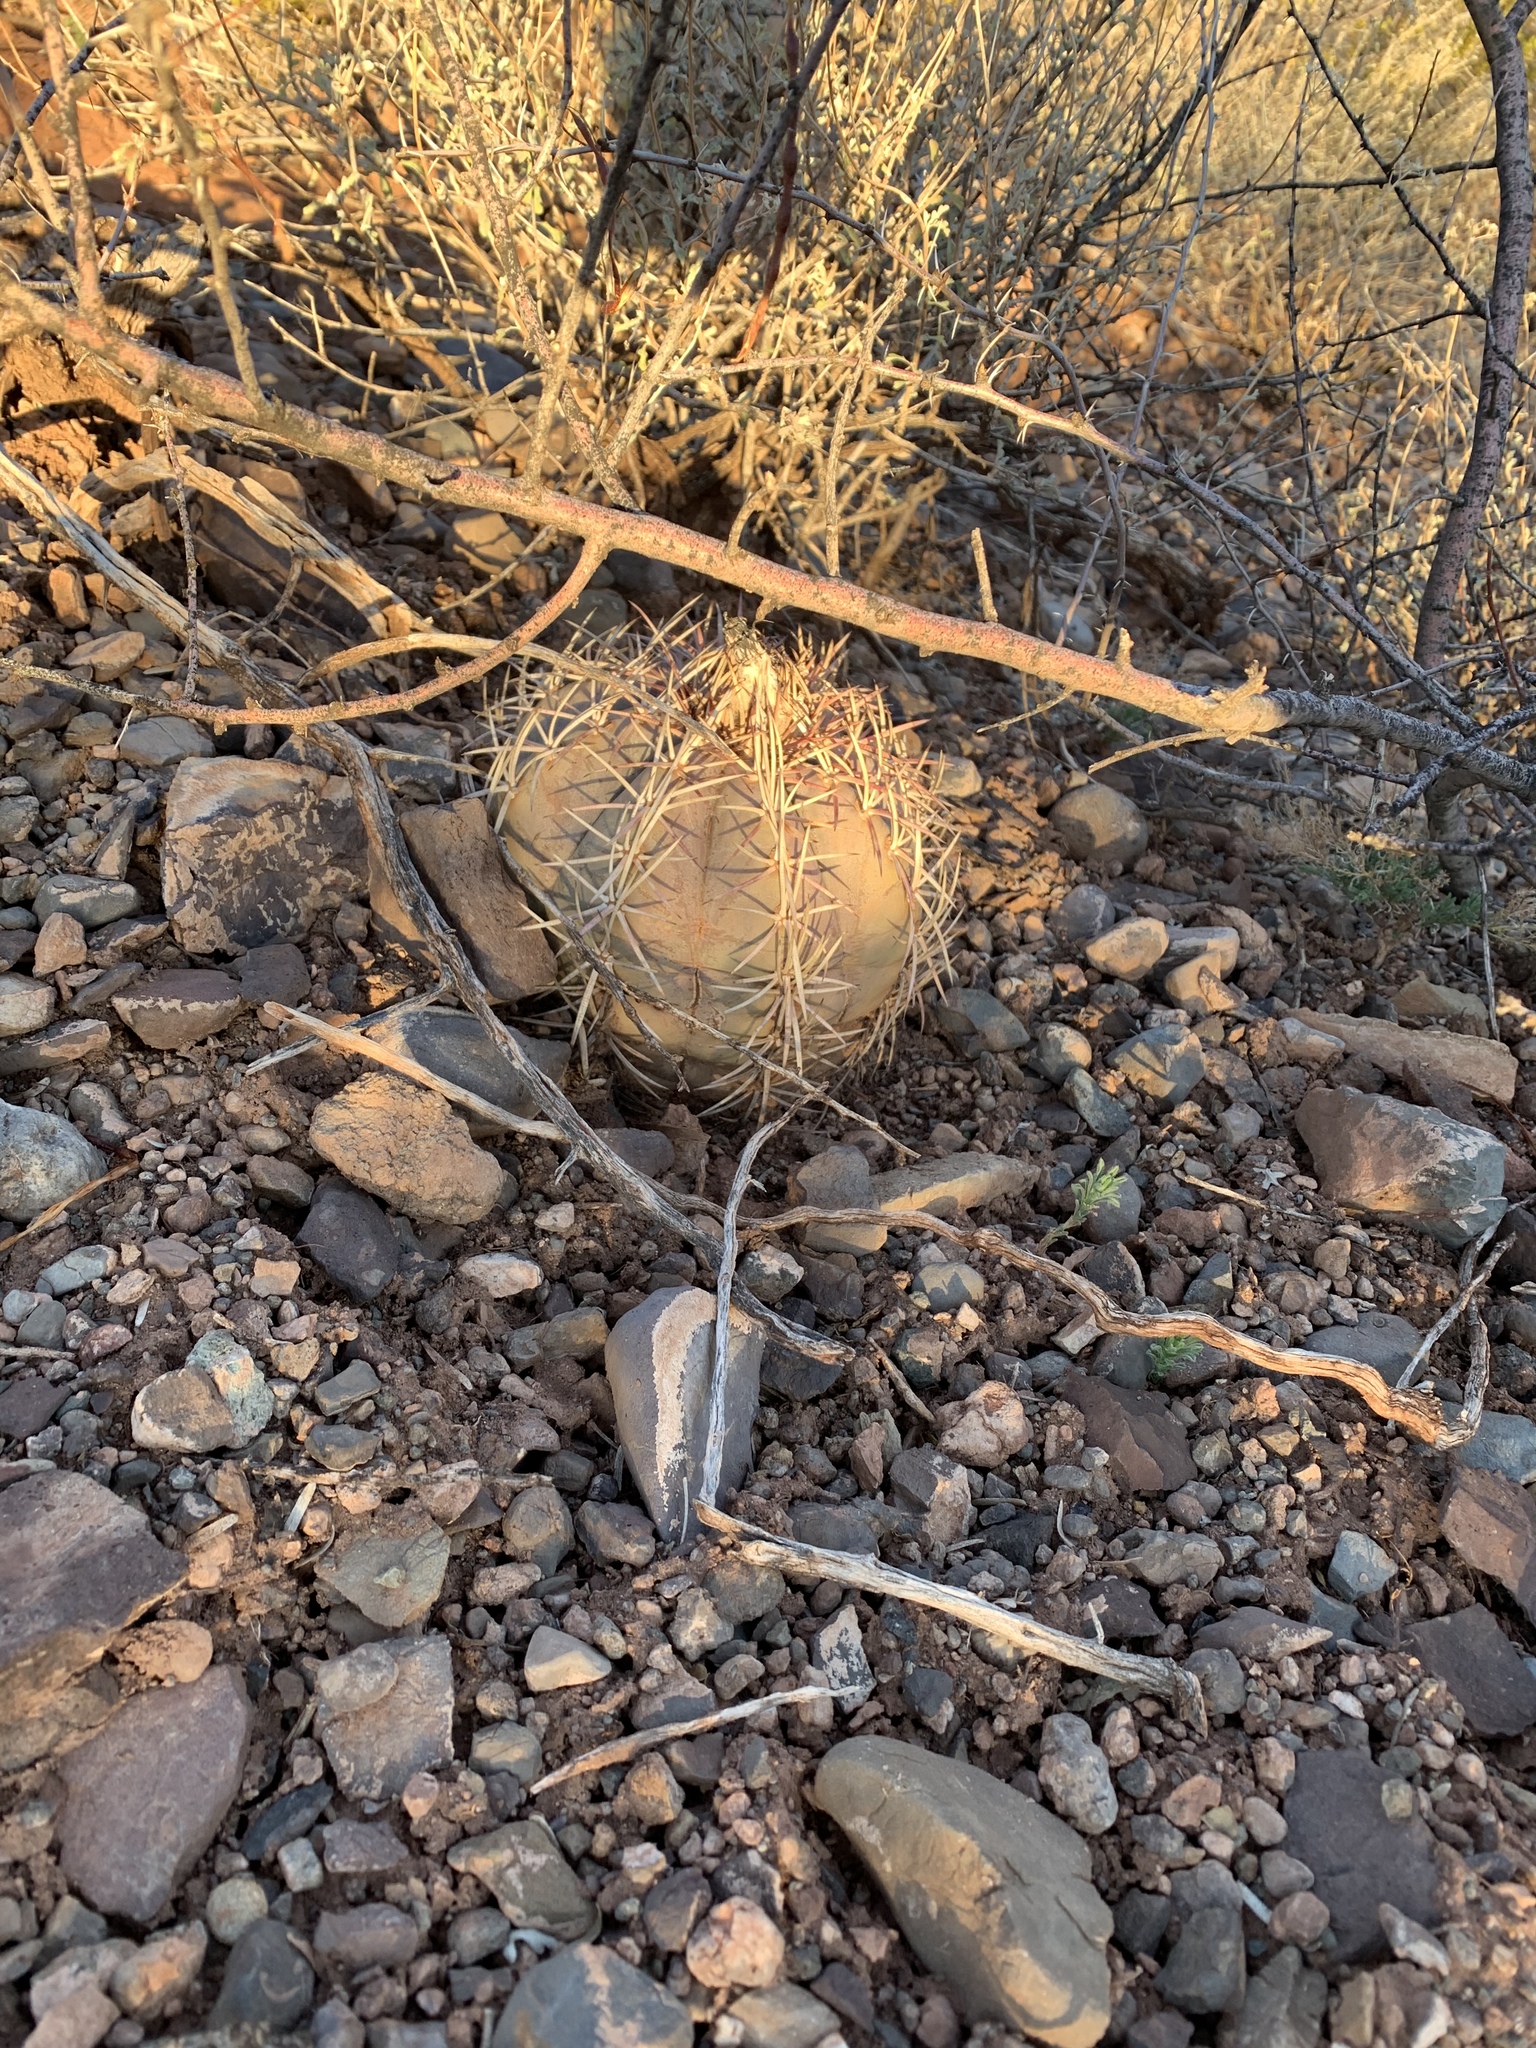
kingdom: Plantae
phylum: Tracheophyta
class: Magnoliopsida
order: Caryophyllales
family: Cactaceae
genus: Echinocactus
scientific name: Echinocactus horizonthalonius
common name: Devilshead
